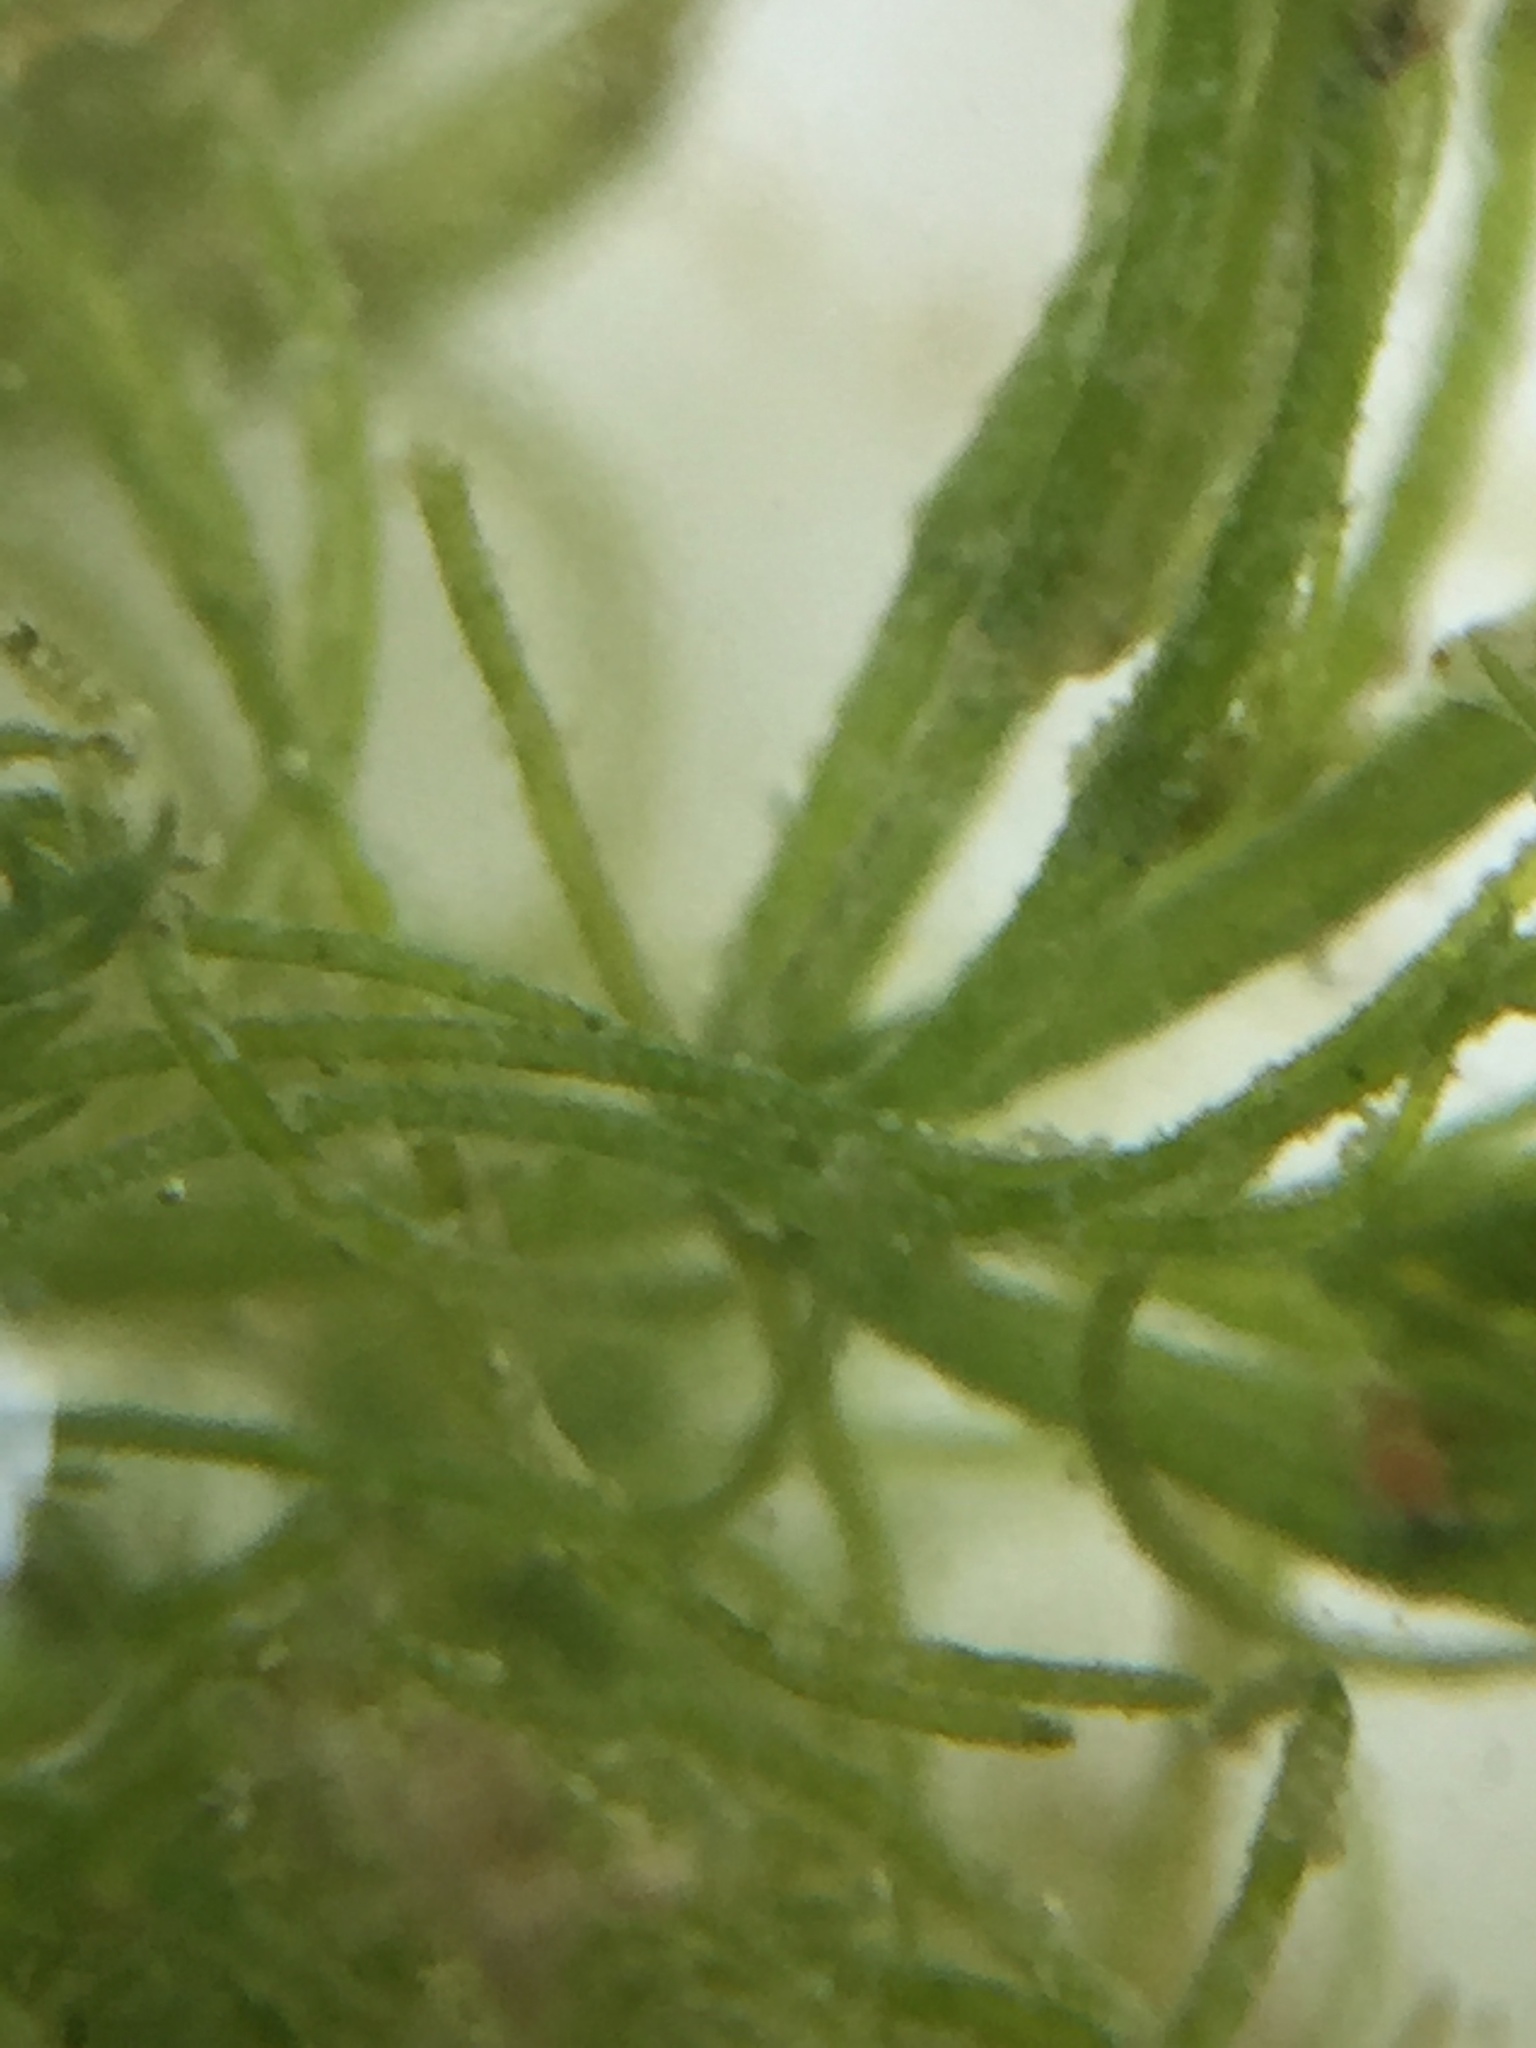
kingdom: Plantae
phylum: Charophyta
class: Charophyceae
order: Charales
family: Characeae
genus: Chara
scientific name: Chara vulgaris
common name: Common stonewort
